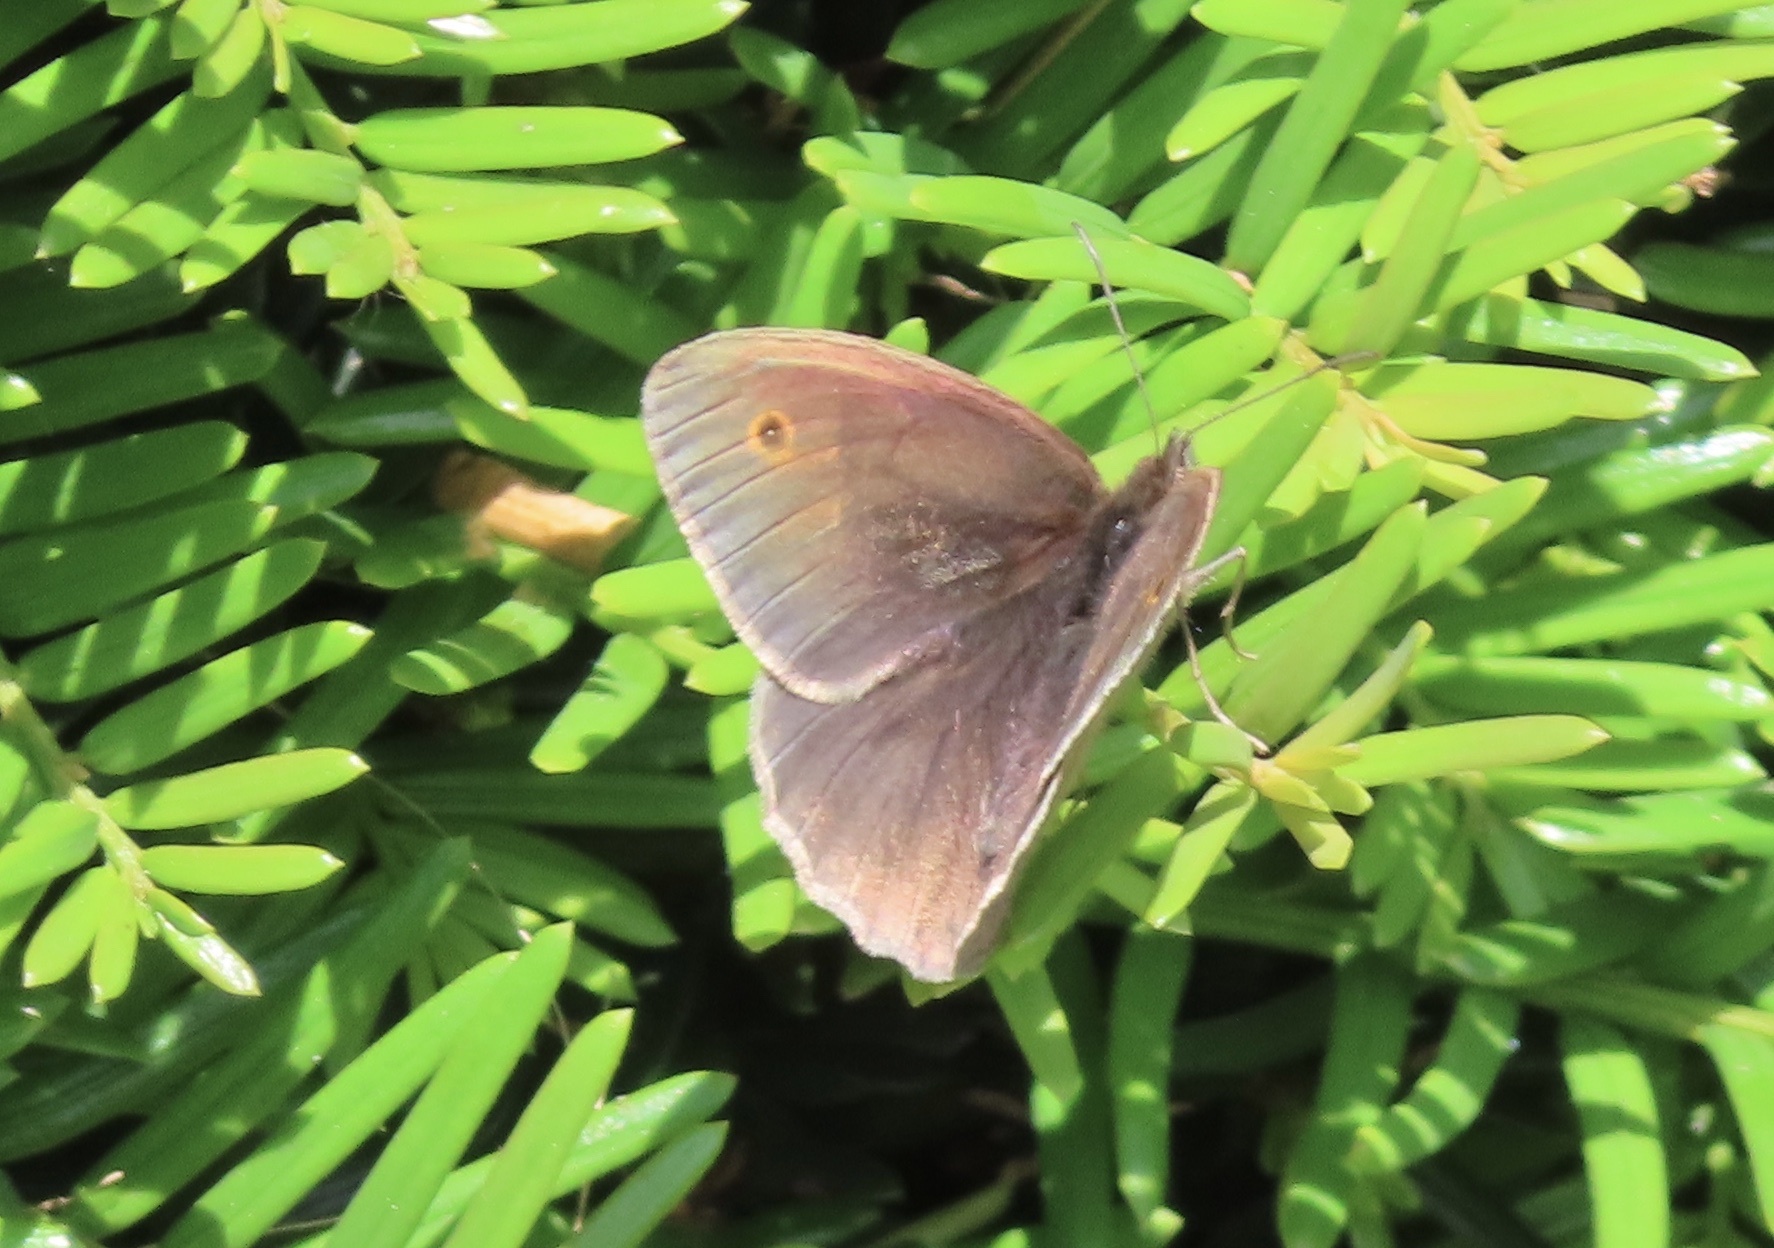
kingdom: Animalia
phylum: Arthropoda
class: Insecta
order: Lepidoptera
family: Nymphalidae
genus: Maniola
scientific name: Maniola jurtina
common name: Meadow brown
